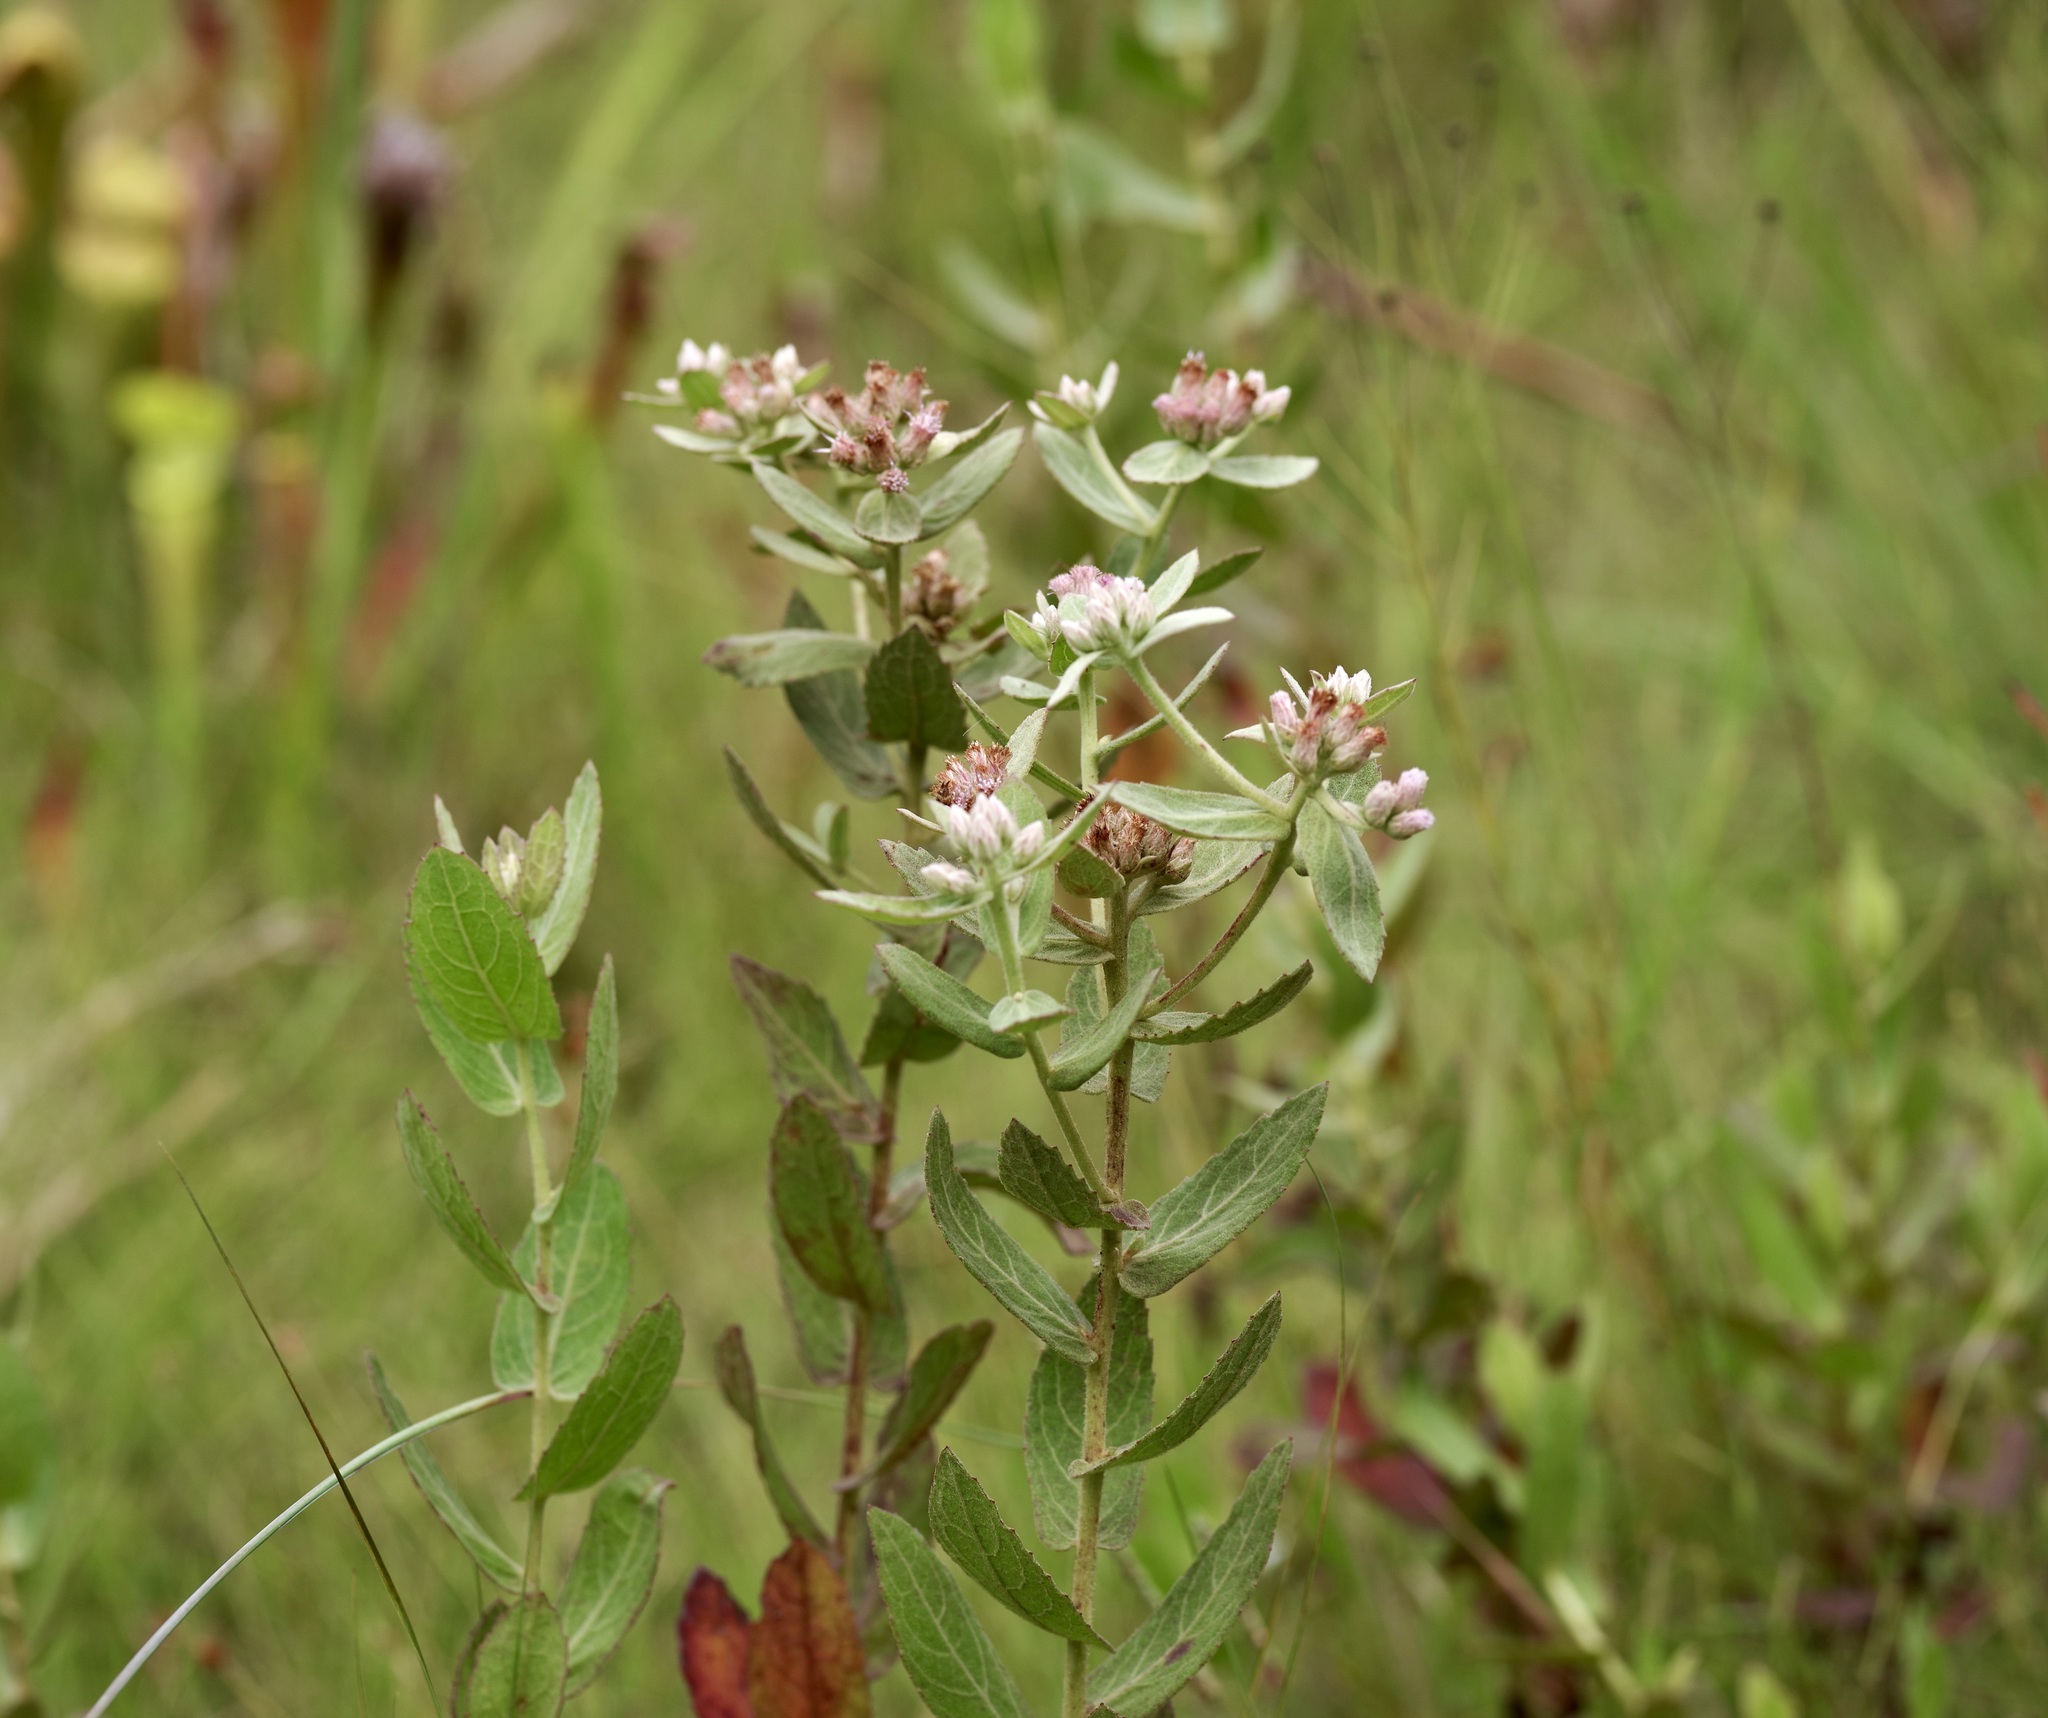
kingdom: Plantae
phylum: Tracheophyta
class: Magnoliopsida
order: Asterales
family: Asteraceae
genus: Pluchea
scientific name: Pluchea baccharis
